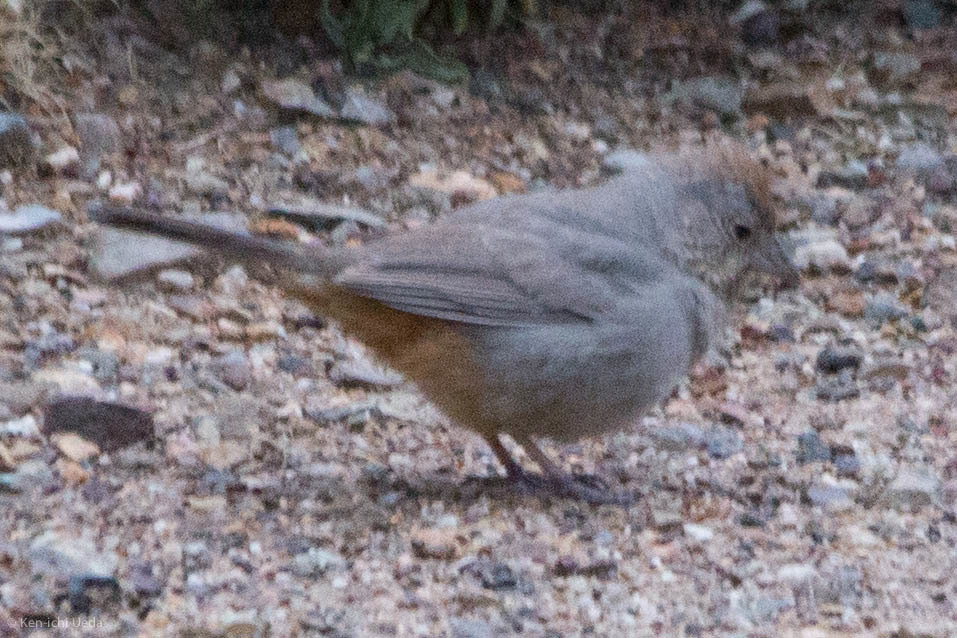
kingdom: Animalia
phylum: Chordata
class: Aves
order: Passeriformes
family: Passerellidae
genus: Melozone
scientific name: Melozone fusca
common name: Canyon towhee
